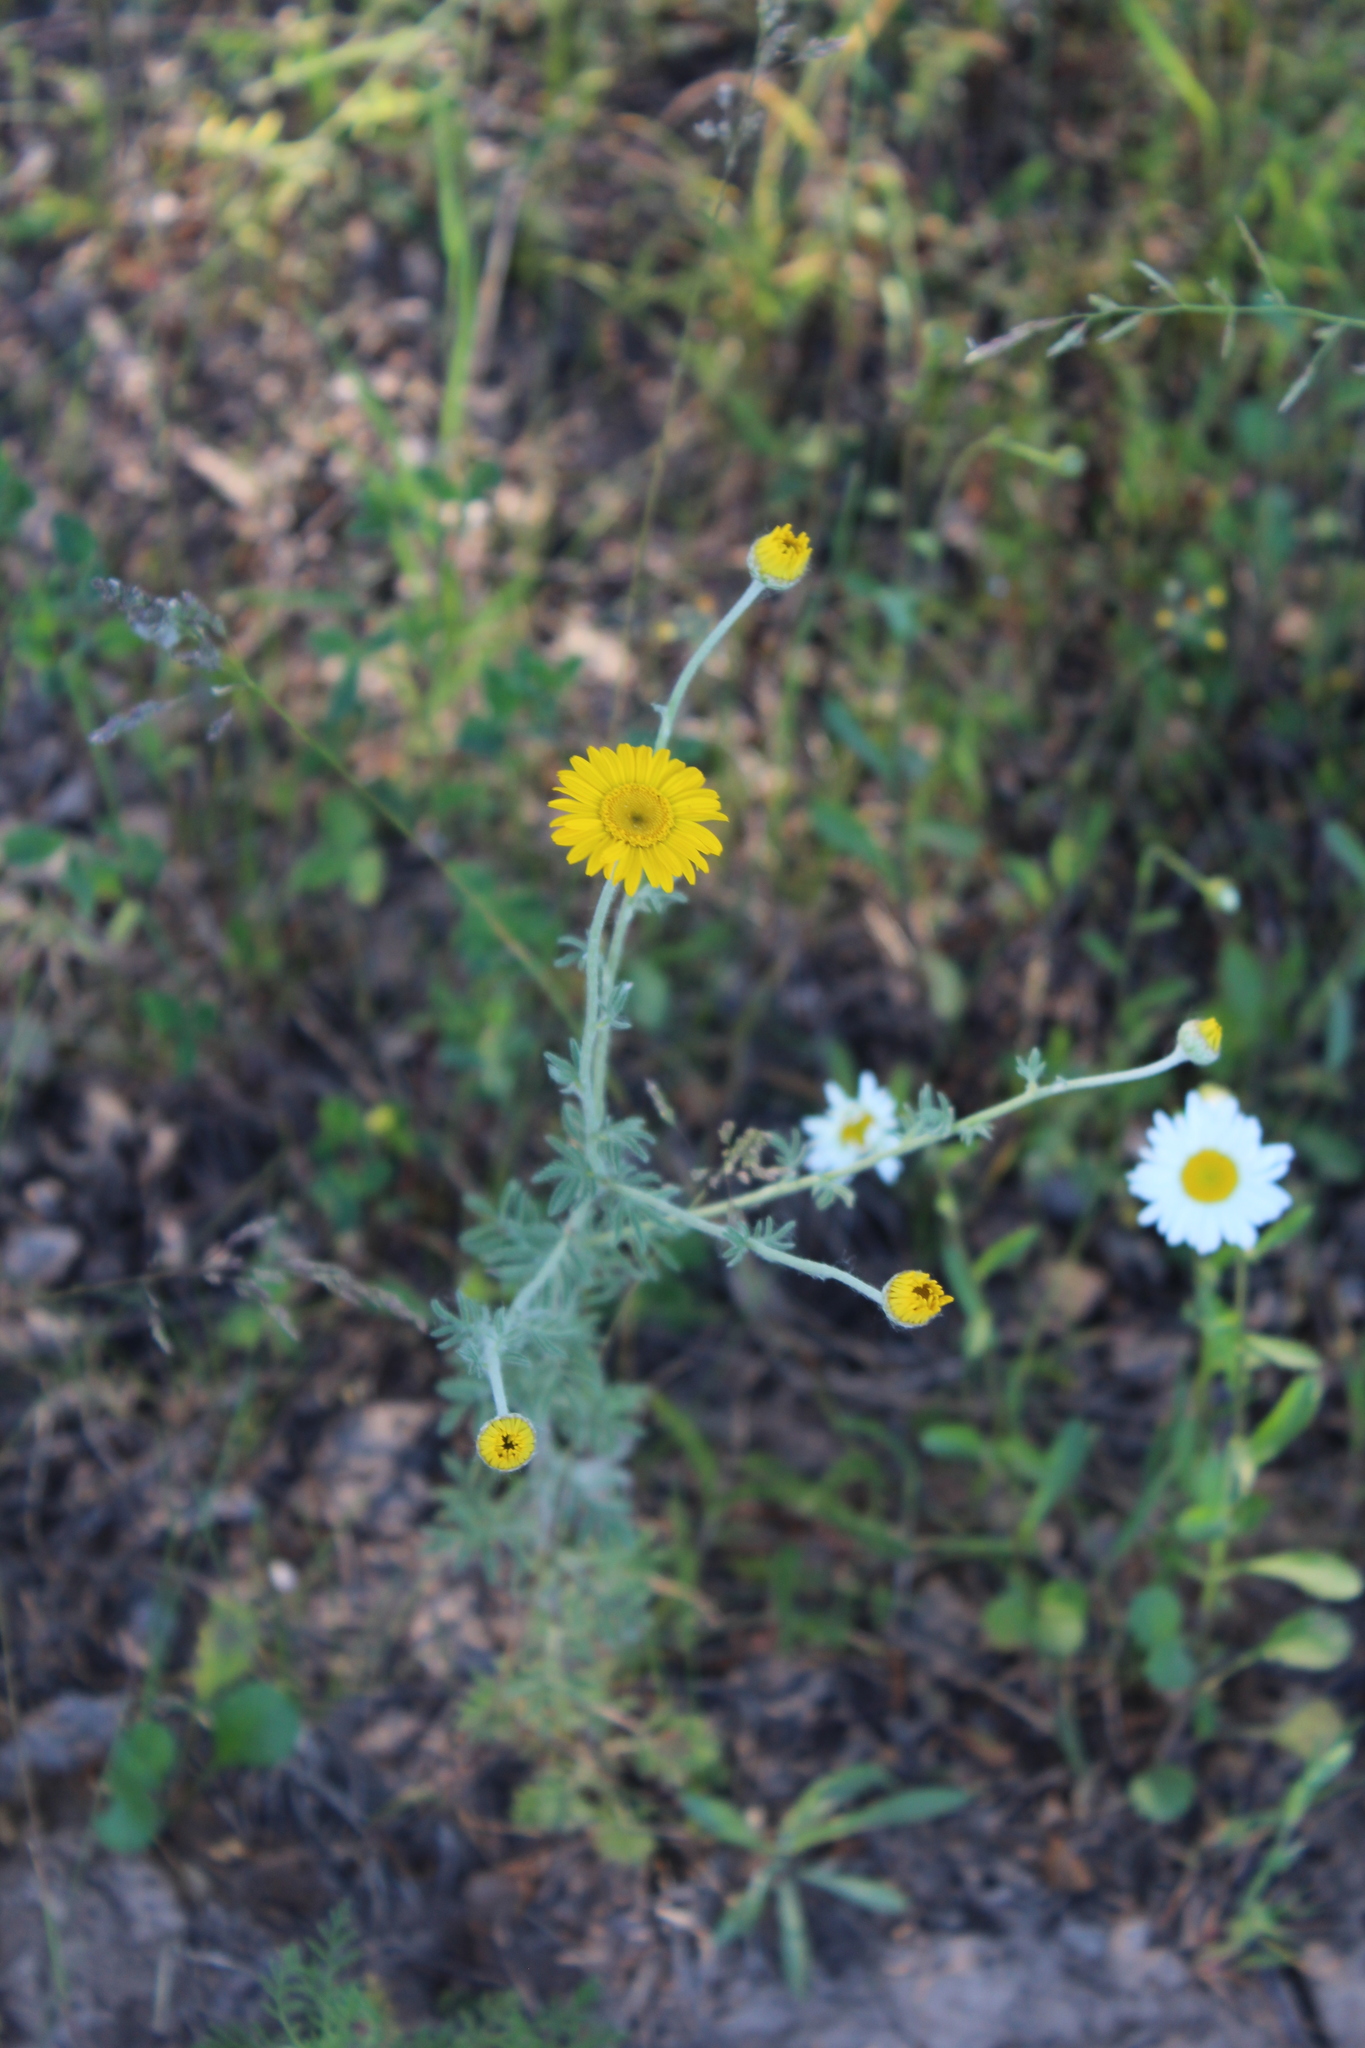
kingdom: Plantae
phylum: Tracheophyta
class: Magnoliopsida
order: Asterales
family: Asteraceae
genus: Cota
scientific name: Cota tinctoria
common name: Golden chamomile
